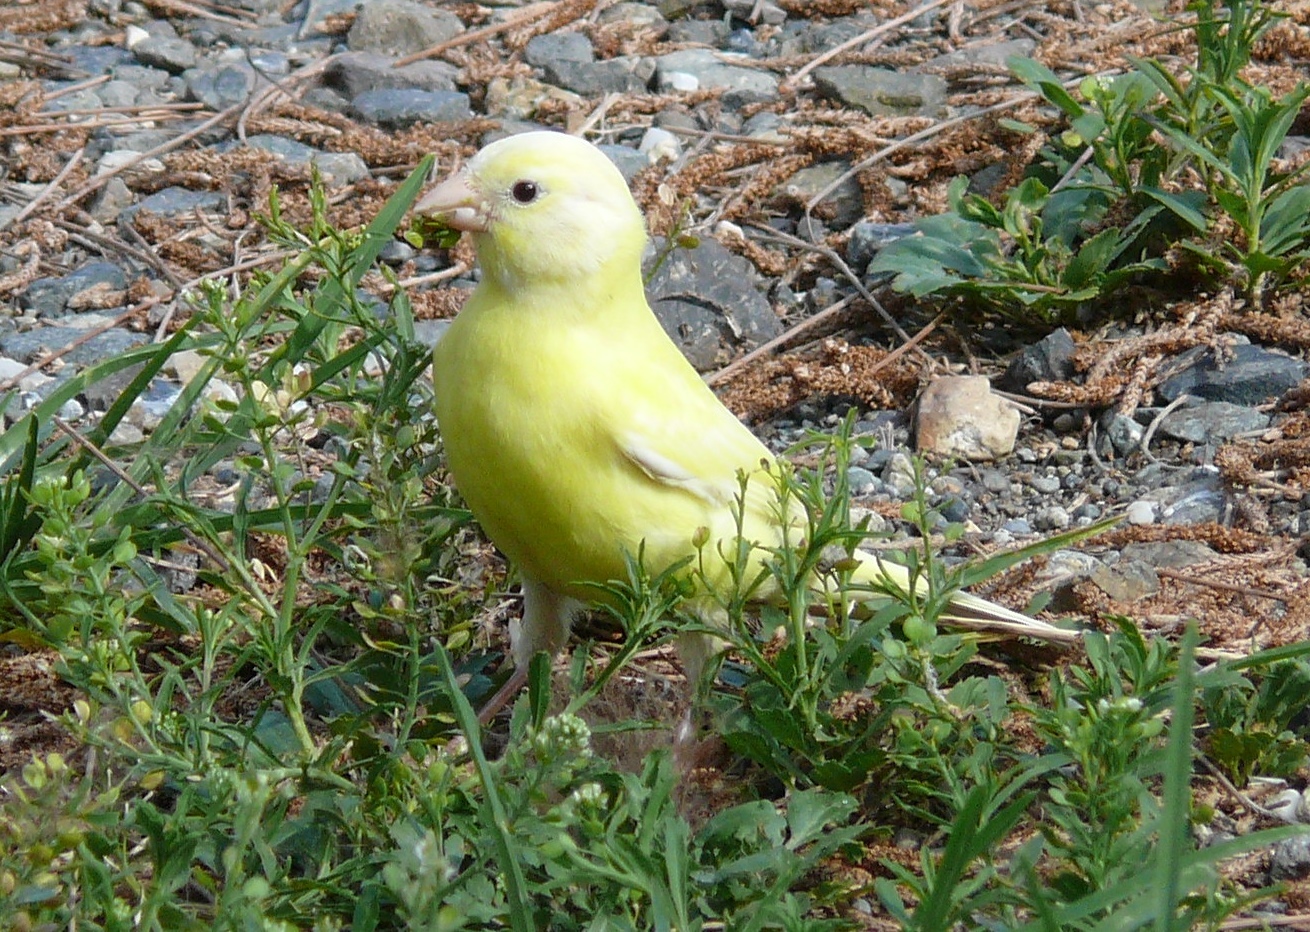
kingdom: Animalia
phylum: Chordata
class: Aves
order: Passeriformes
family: Fringillidae
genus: Serinus
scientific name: Serinus canaria
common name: Atlantic canary
